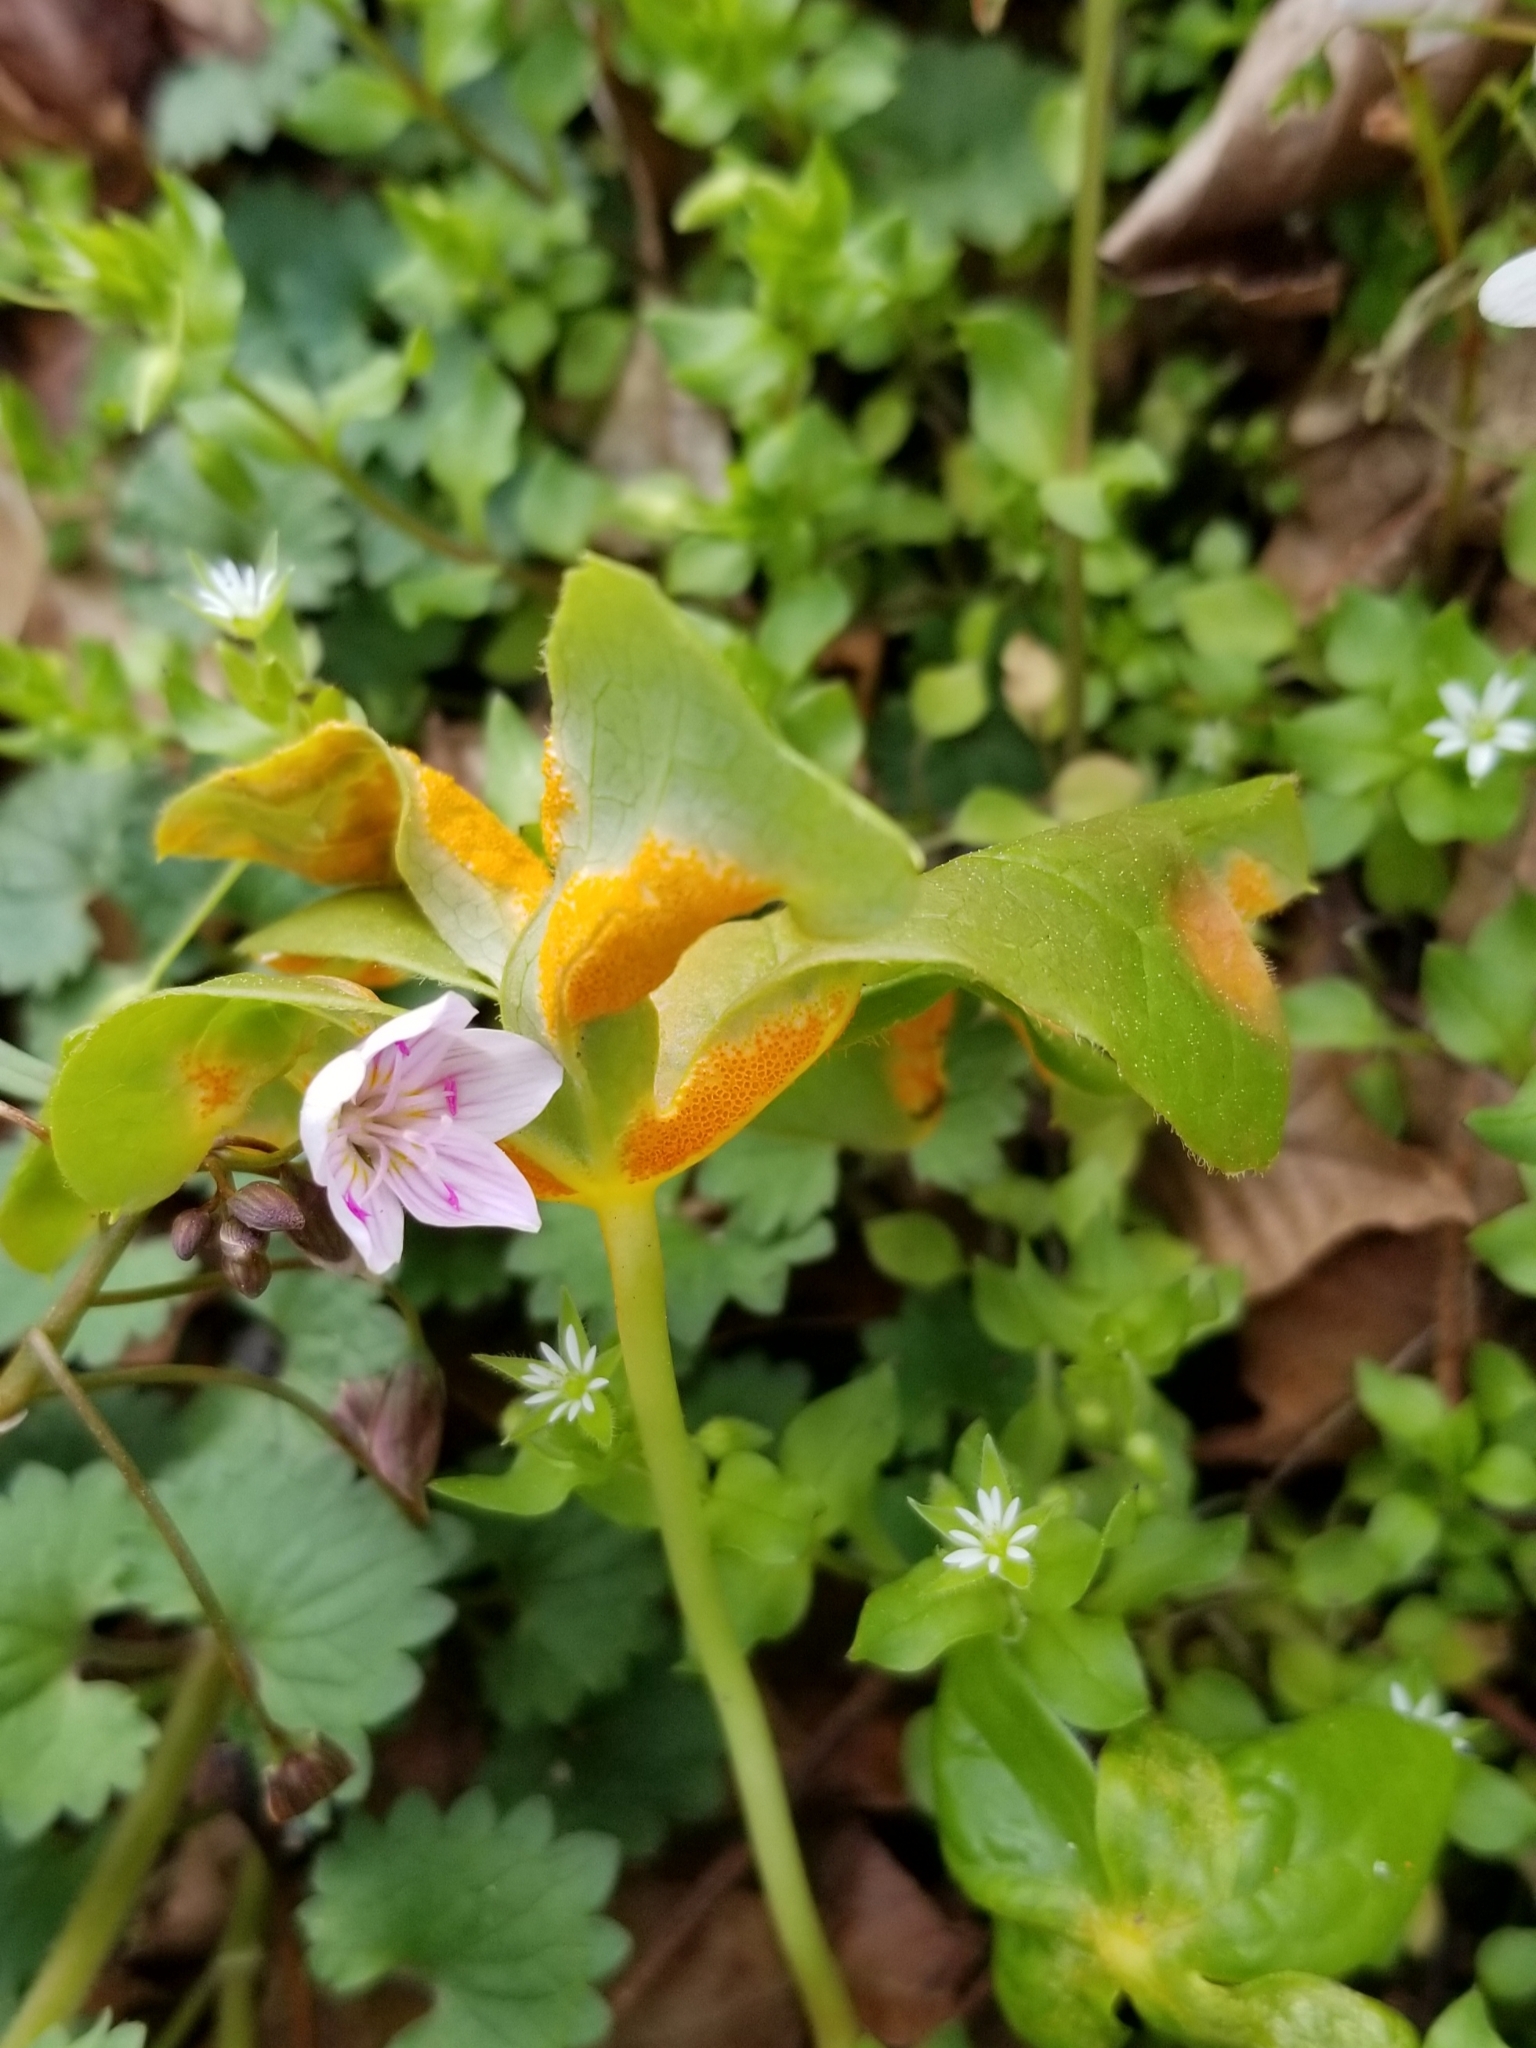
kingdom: Fungi
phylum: Basidiomycota
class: Pucciniomycetes
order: Pucciniales
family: Pucciniaceae
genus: Puccinia
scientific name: Puccinia podophylli
